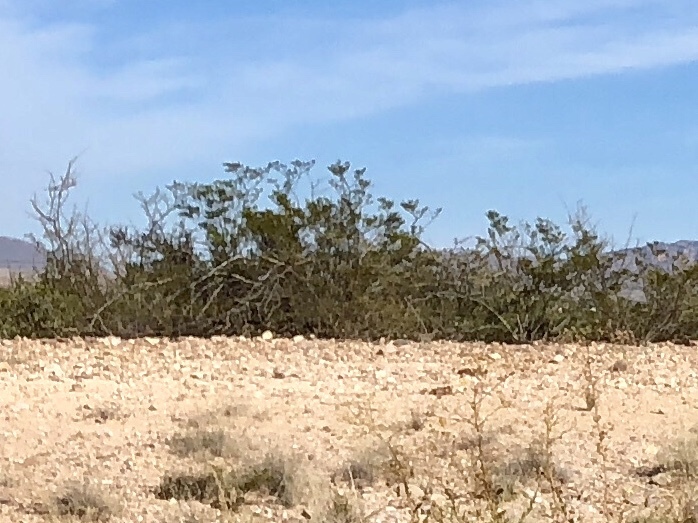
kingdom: Plantae
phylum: Tracheophyta
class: Magnoliopsida
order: Zygophyllales
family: Zygophyllaceae
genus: Larrea
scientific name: Larrea tridentata
